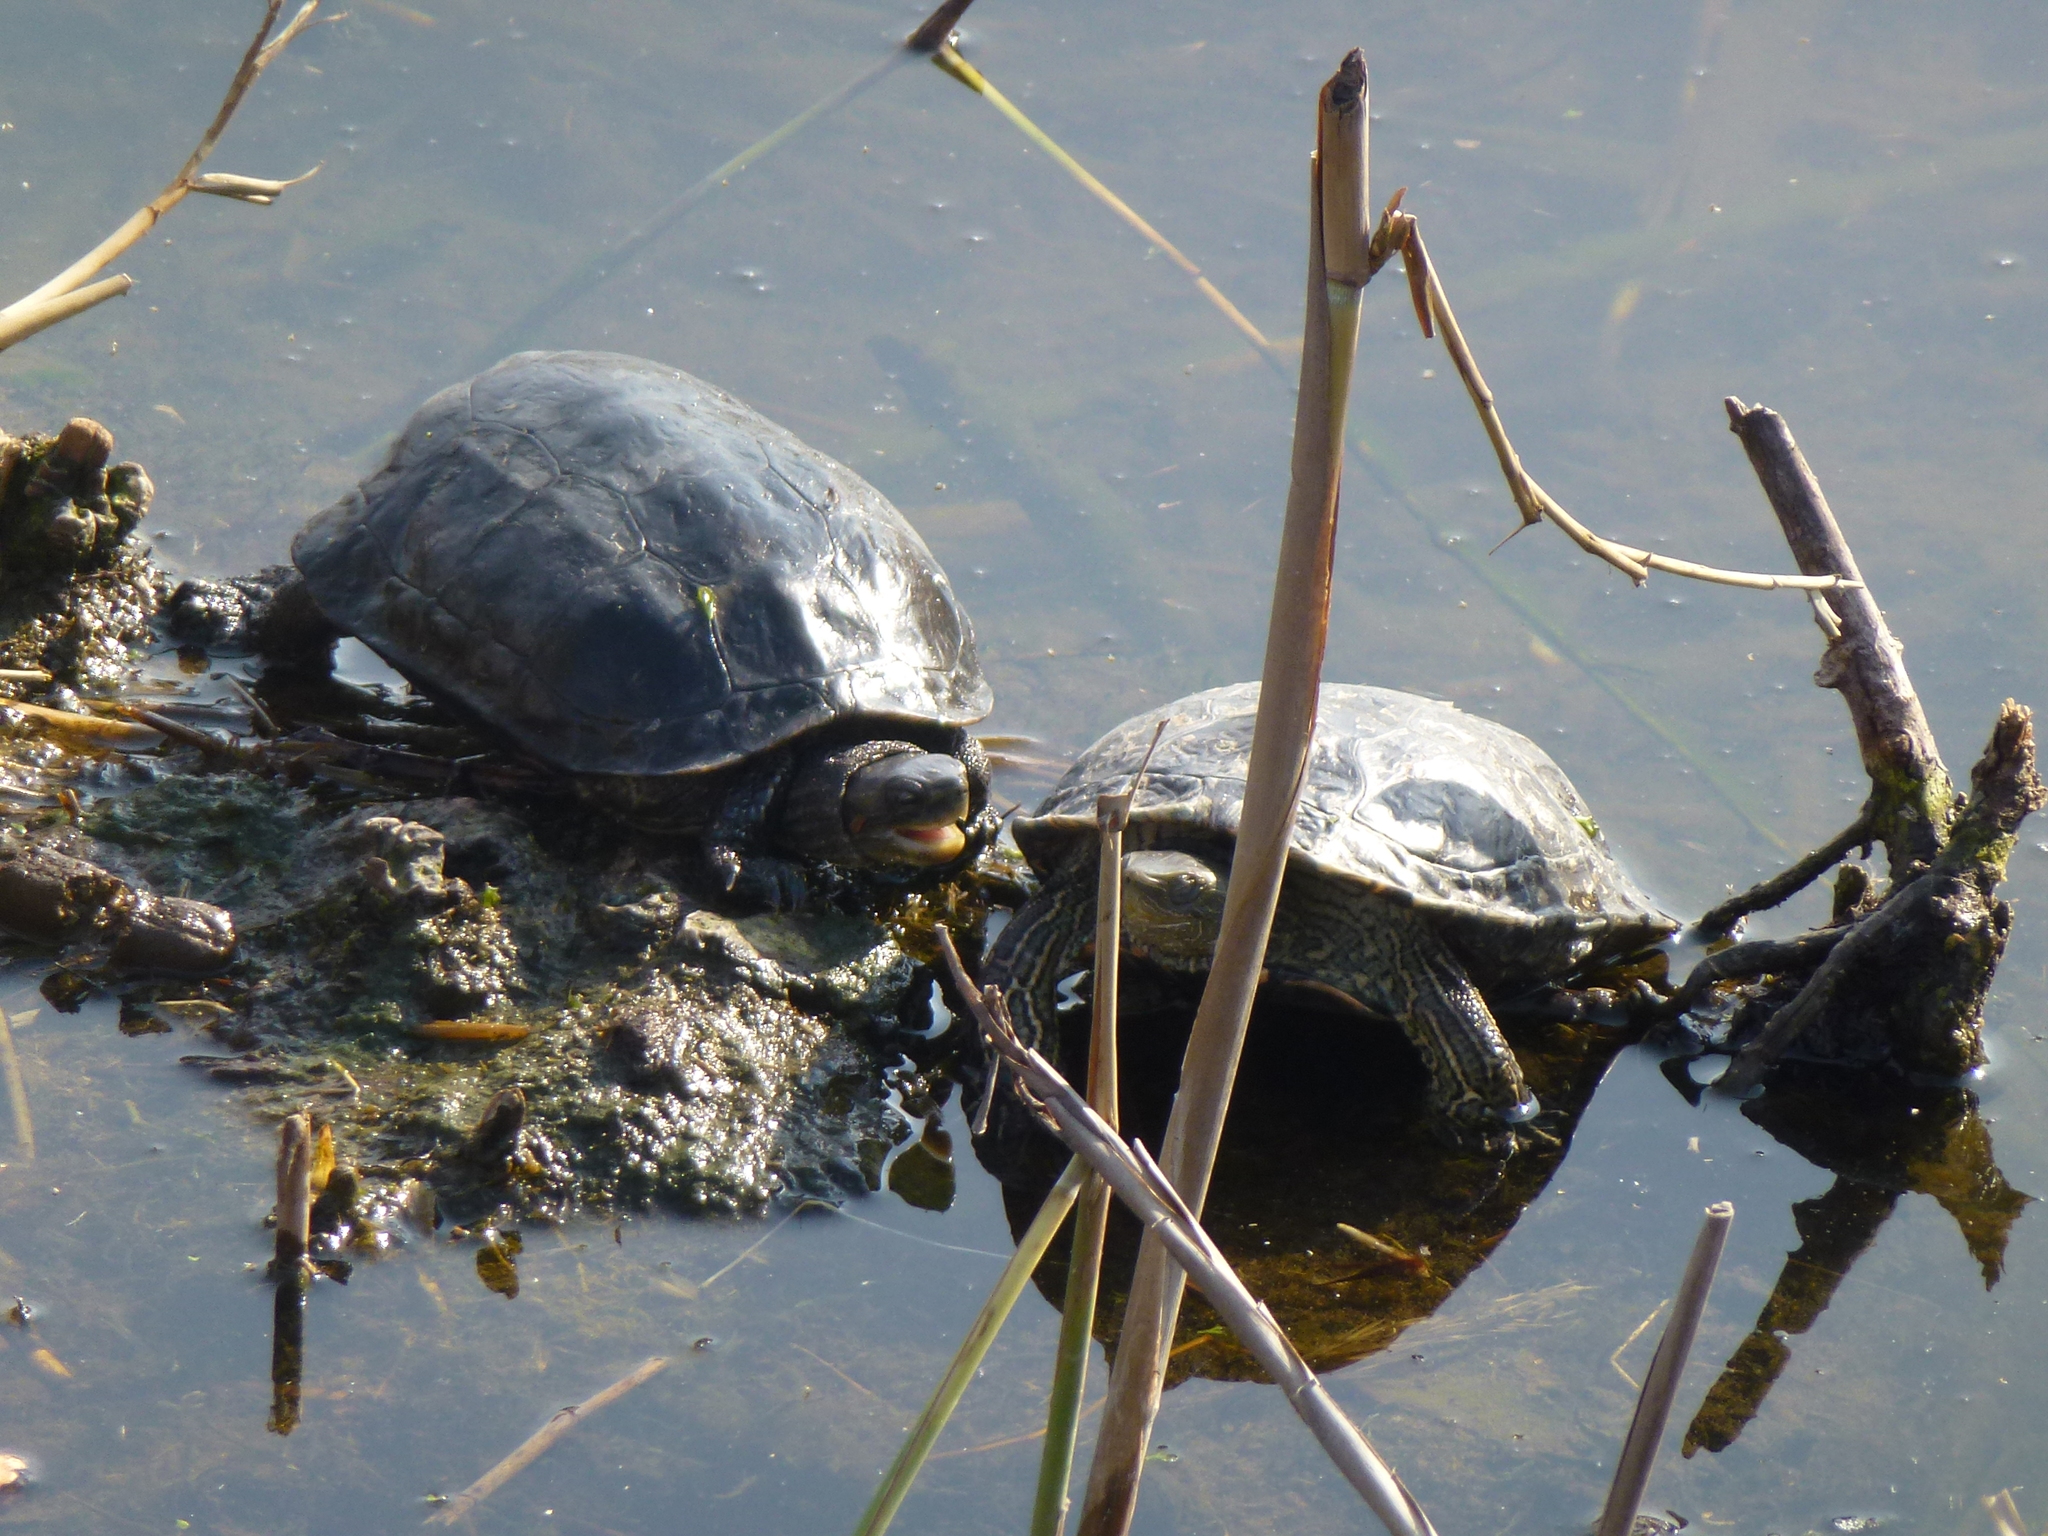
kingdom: Animalia
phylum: Chordata
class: Testudines
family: Geoemydidae
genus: Mauremys
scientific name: Mauremys rivulata
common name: Western caspian turtle
